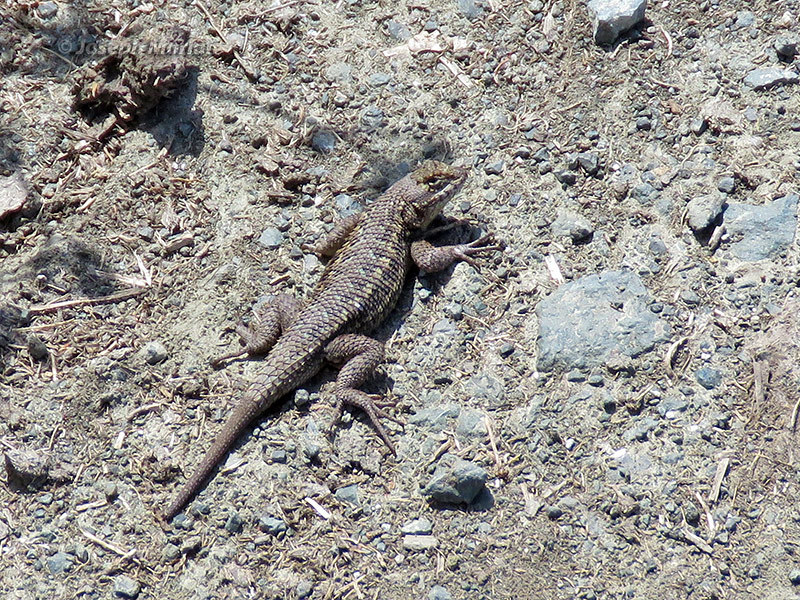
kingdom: Animalia
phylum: Chordata
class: Squamata
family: Phrynosomatidae
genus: Sceloporus
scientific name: Sceloporus occidentalis
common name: Western fence lizard
